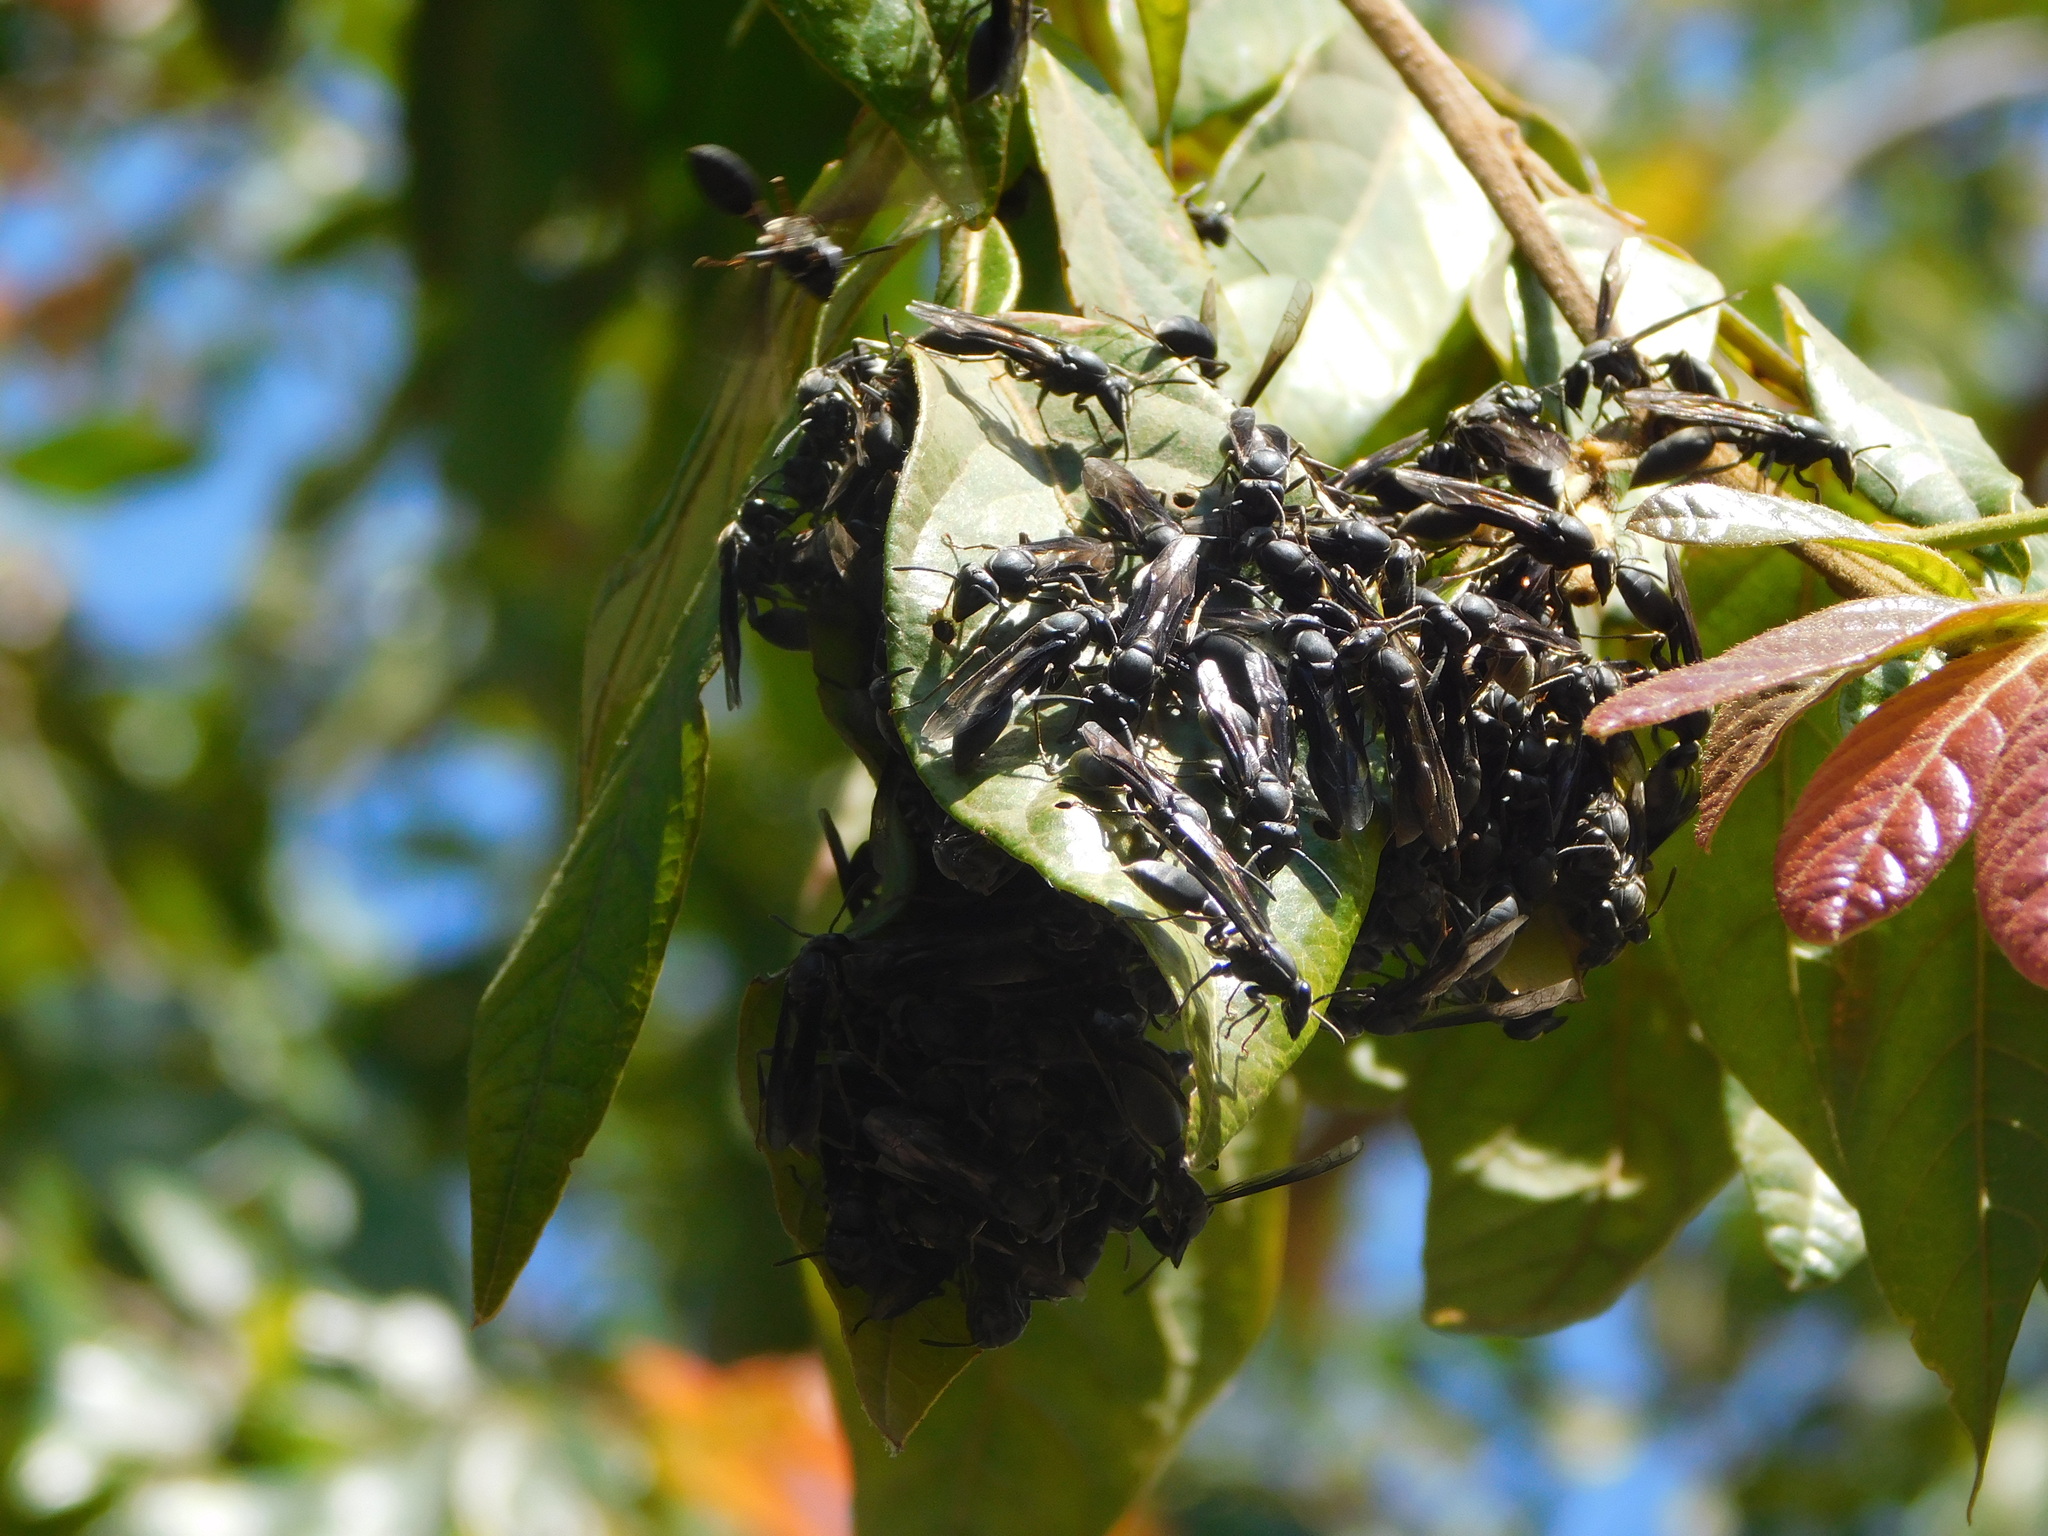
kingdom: Animalia
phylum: Arthropoda
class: Insecta
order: Hymenoptera
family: Eumenidae
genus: Polybia
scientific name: Polybia ignobilis
